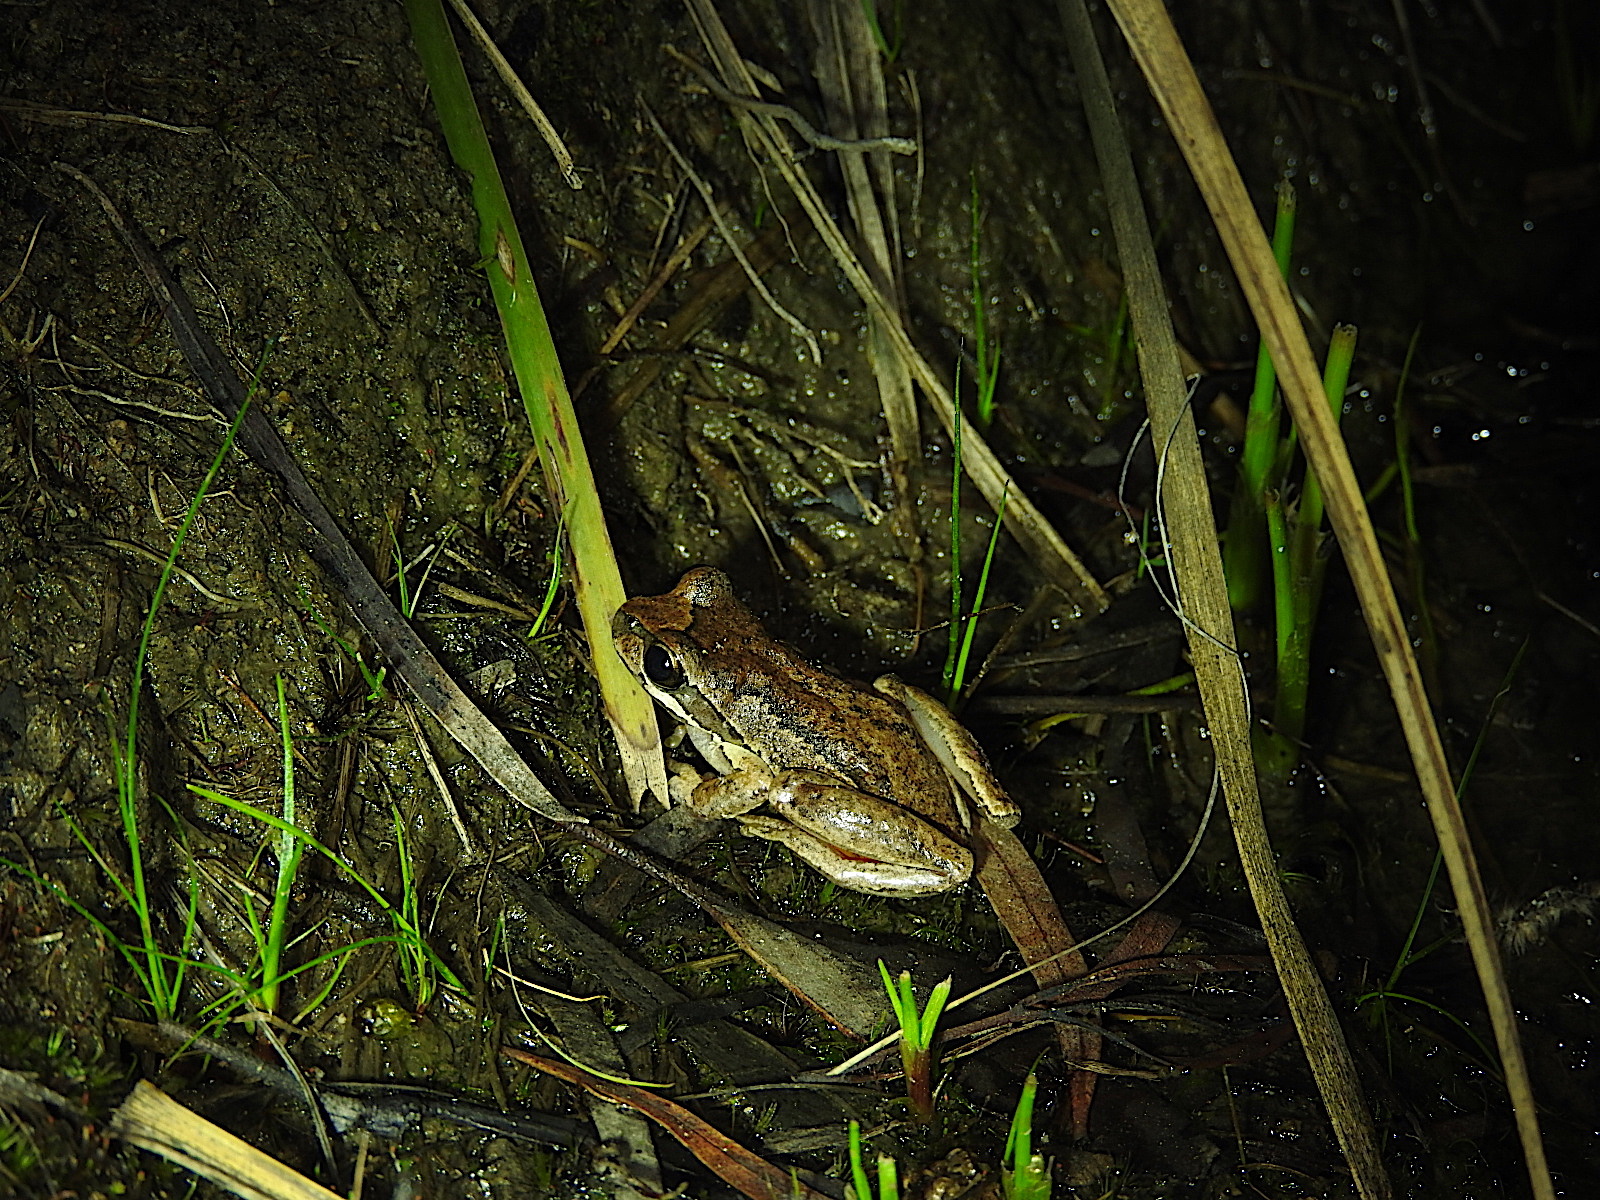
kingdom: Animalia
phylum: Chordata
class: Amphibia
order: Anura
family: Pelodryadidae
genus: Litoria
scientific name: Litoria ewingii
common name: Southern brown tree frog
